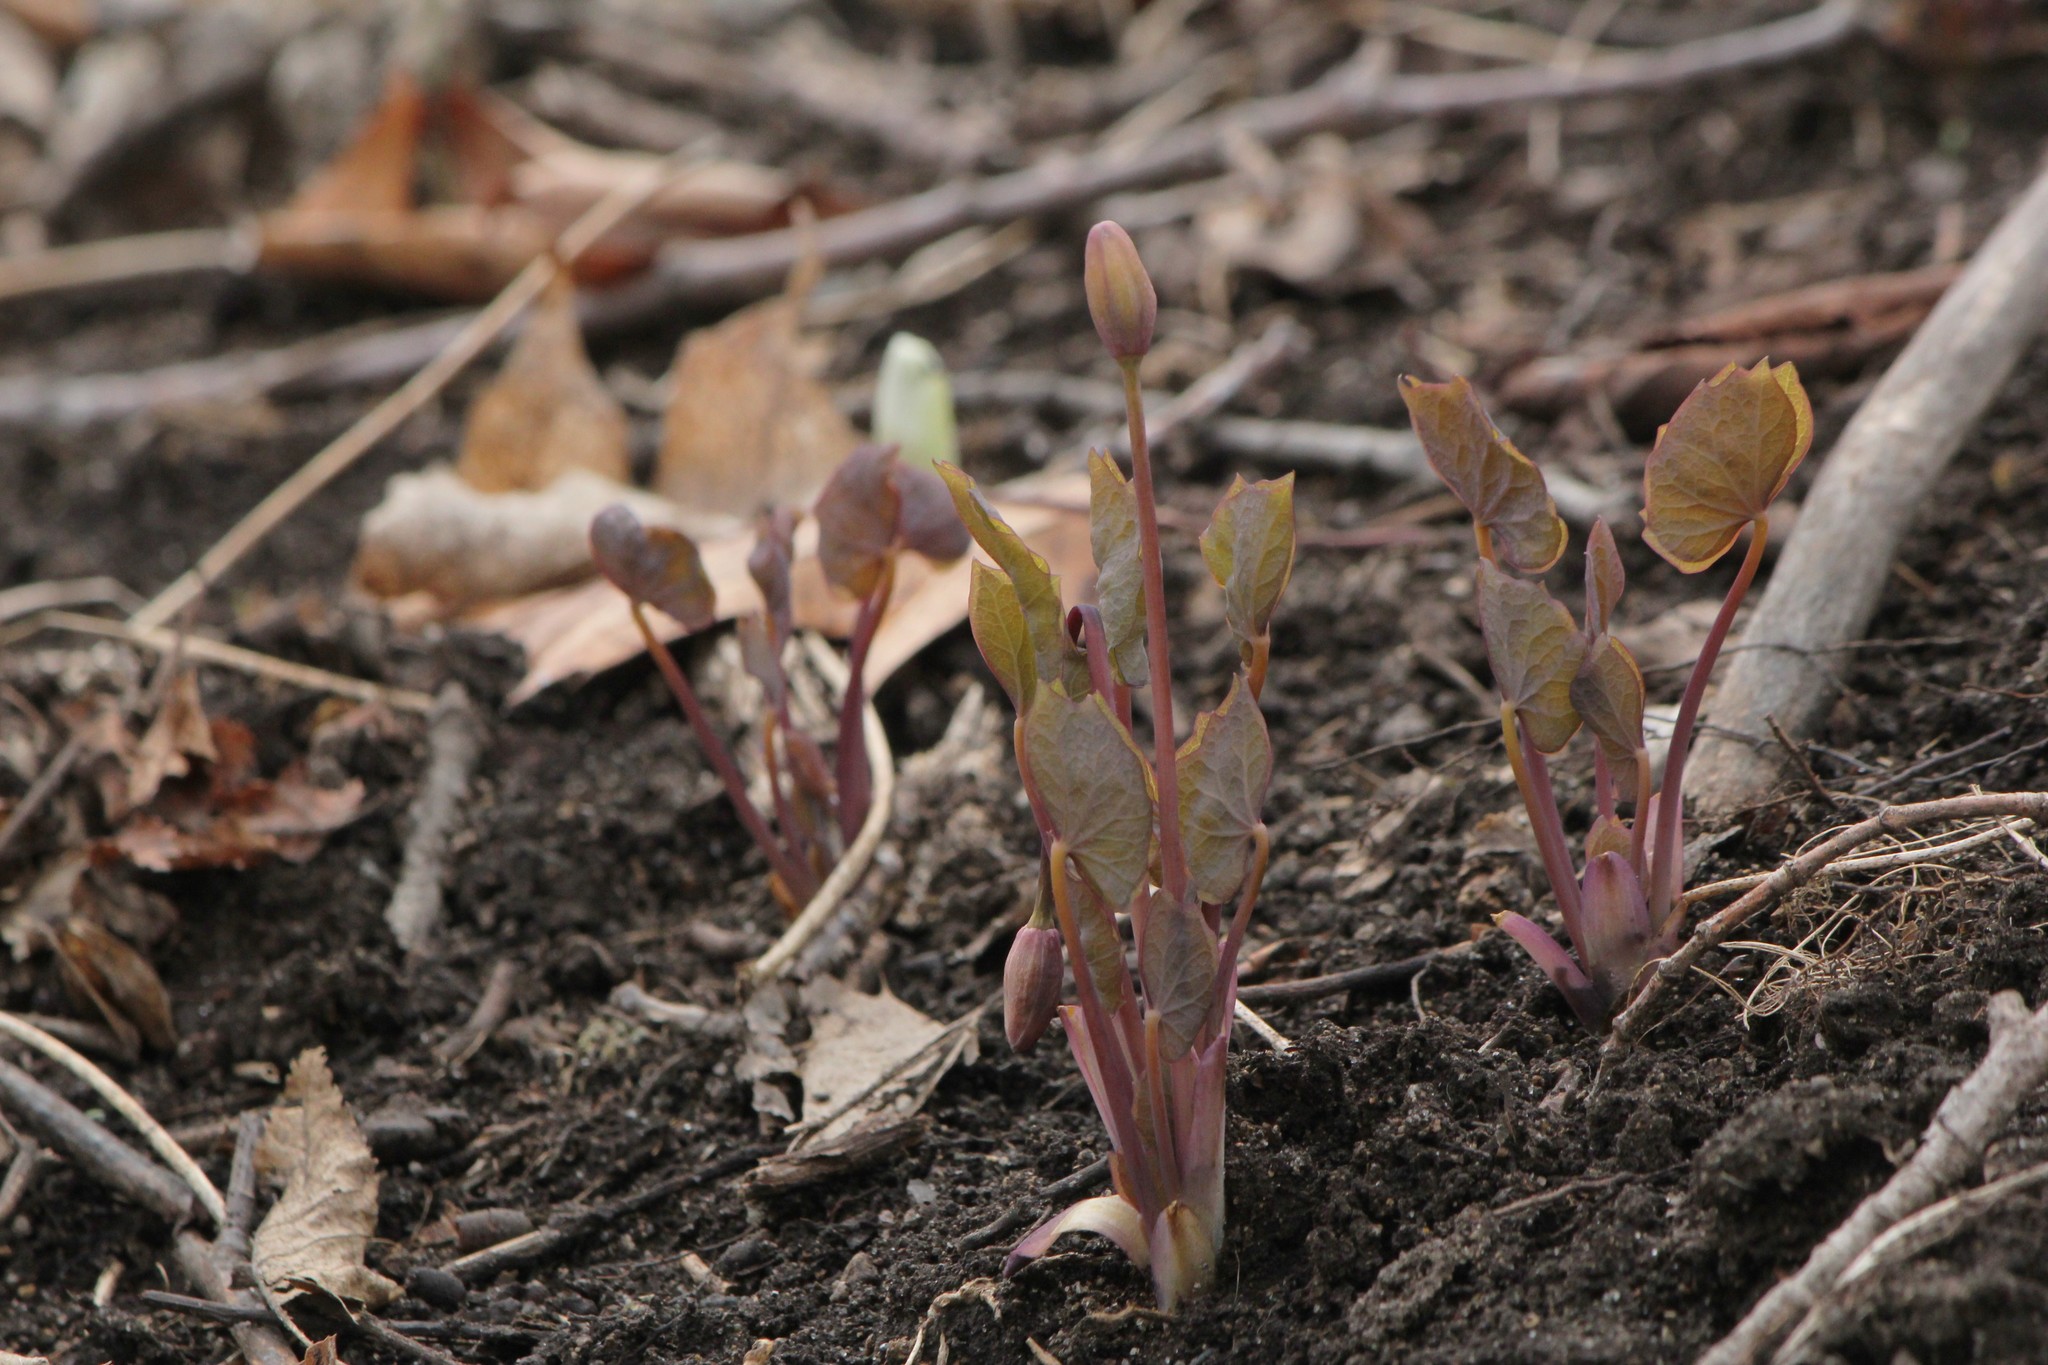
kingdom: Plantae
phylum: Tracheophyta
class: Magnoliopsida
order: Ranunculales
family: Berberidaceae
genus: Jeffersonia
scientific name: Jeffersonia diphylla
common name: Rheumatism-root
